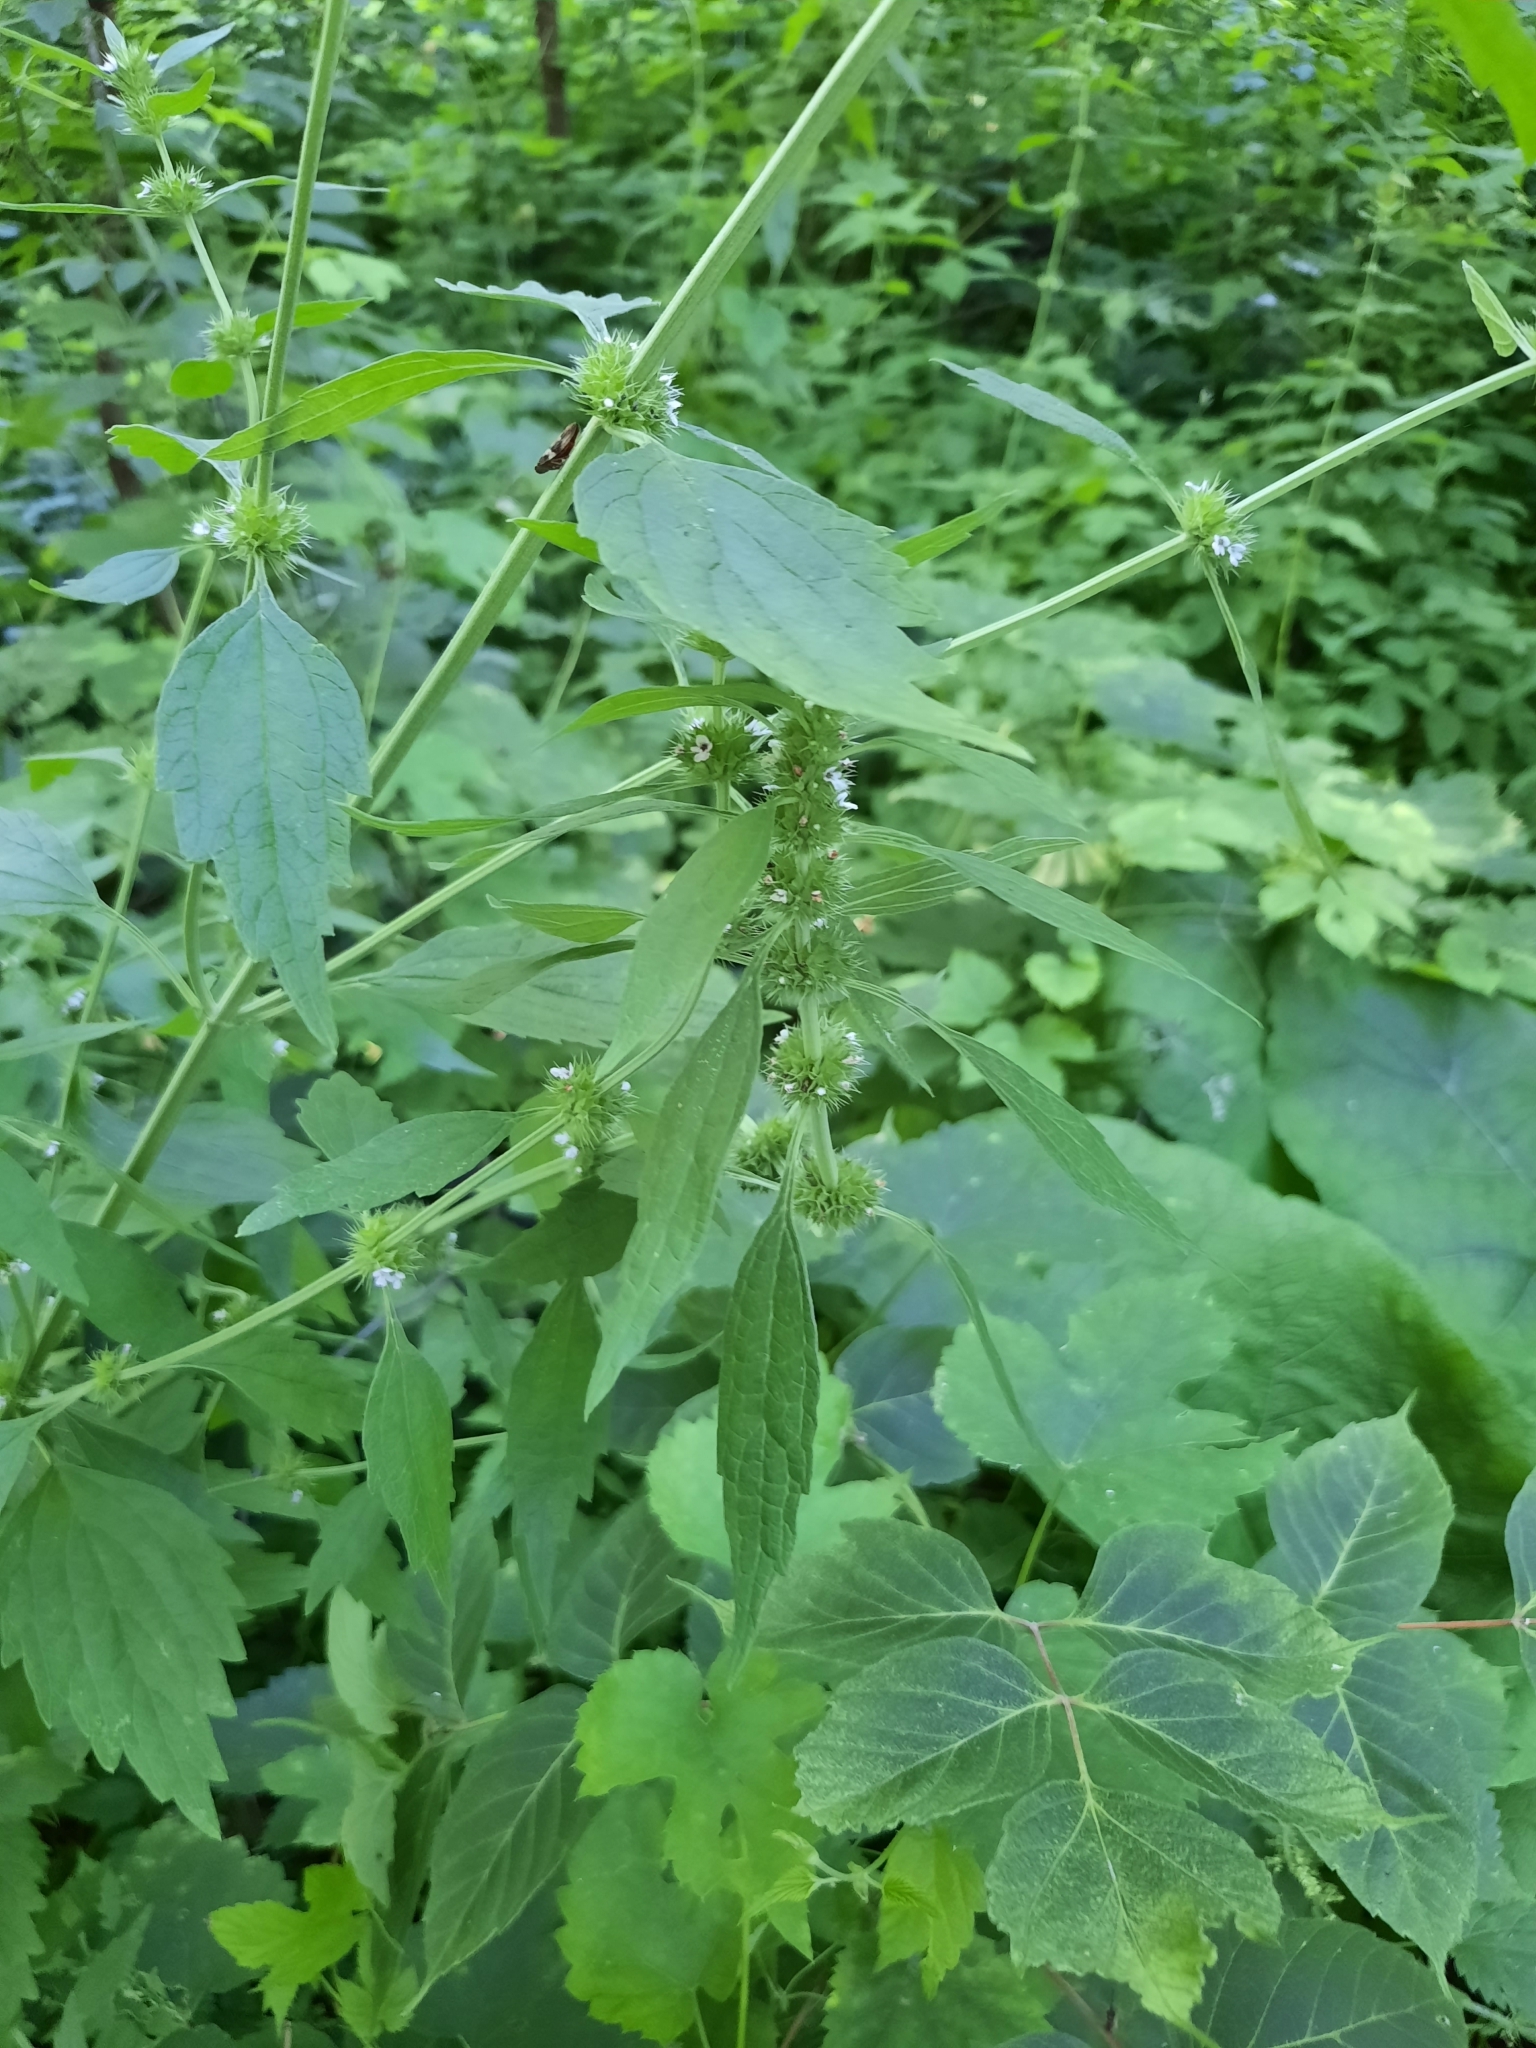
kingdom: Plantae
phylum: Tracheophyta
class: Magnoliopsida
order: Lamiales
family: Lamiaceae
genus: Chaiturus
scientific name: Chaiturus marrubiastrum
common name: Lion's tail
